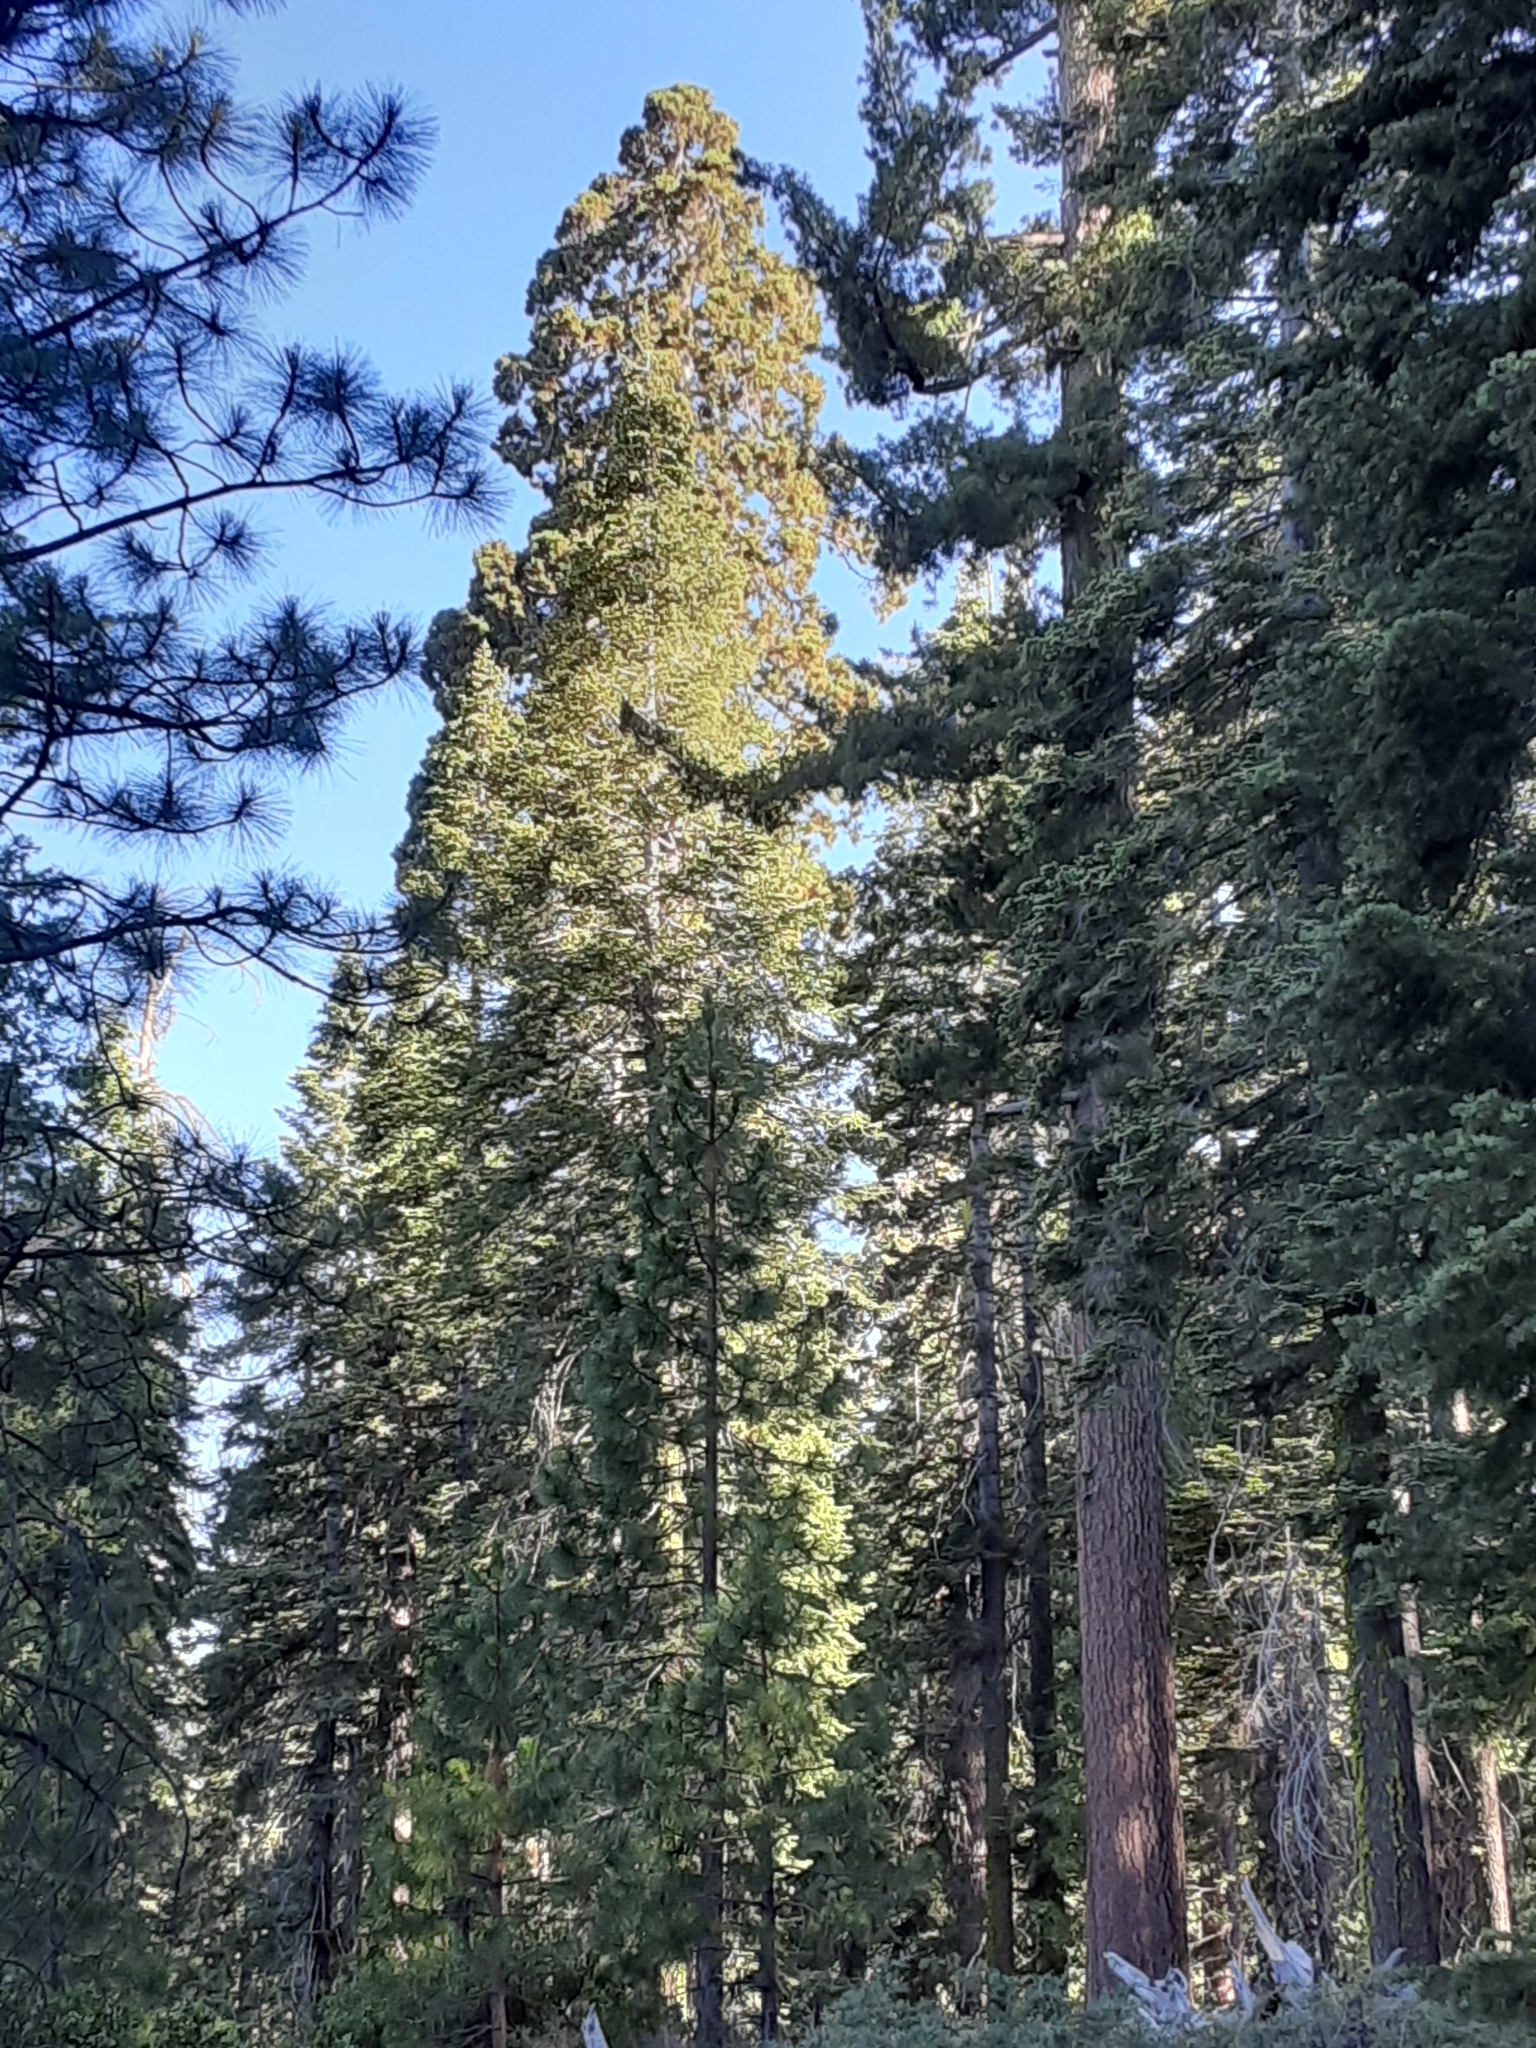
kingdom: Plantae
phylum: Tracheophyta
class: Pinopsida
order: Pinales
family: Cupressaceae
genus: Sequoiadendron
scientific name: Sequoiadendron giganteum
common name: Wellingtonia
